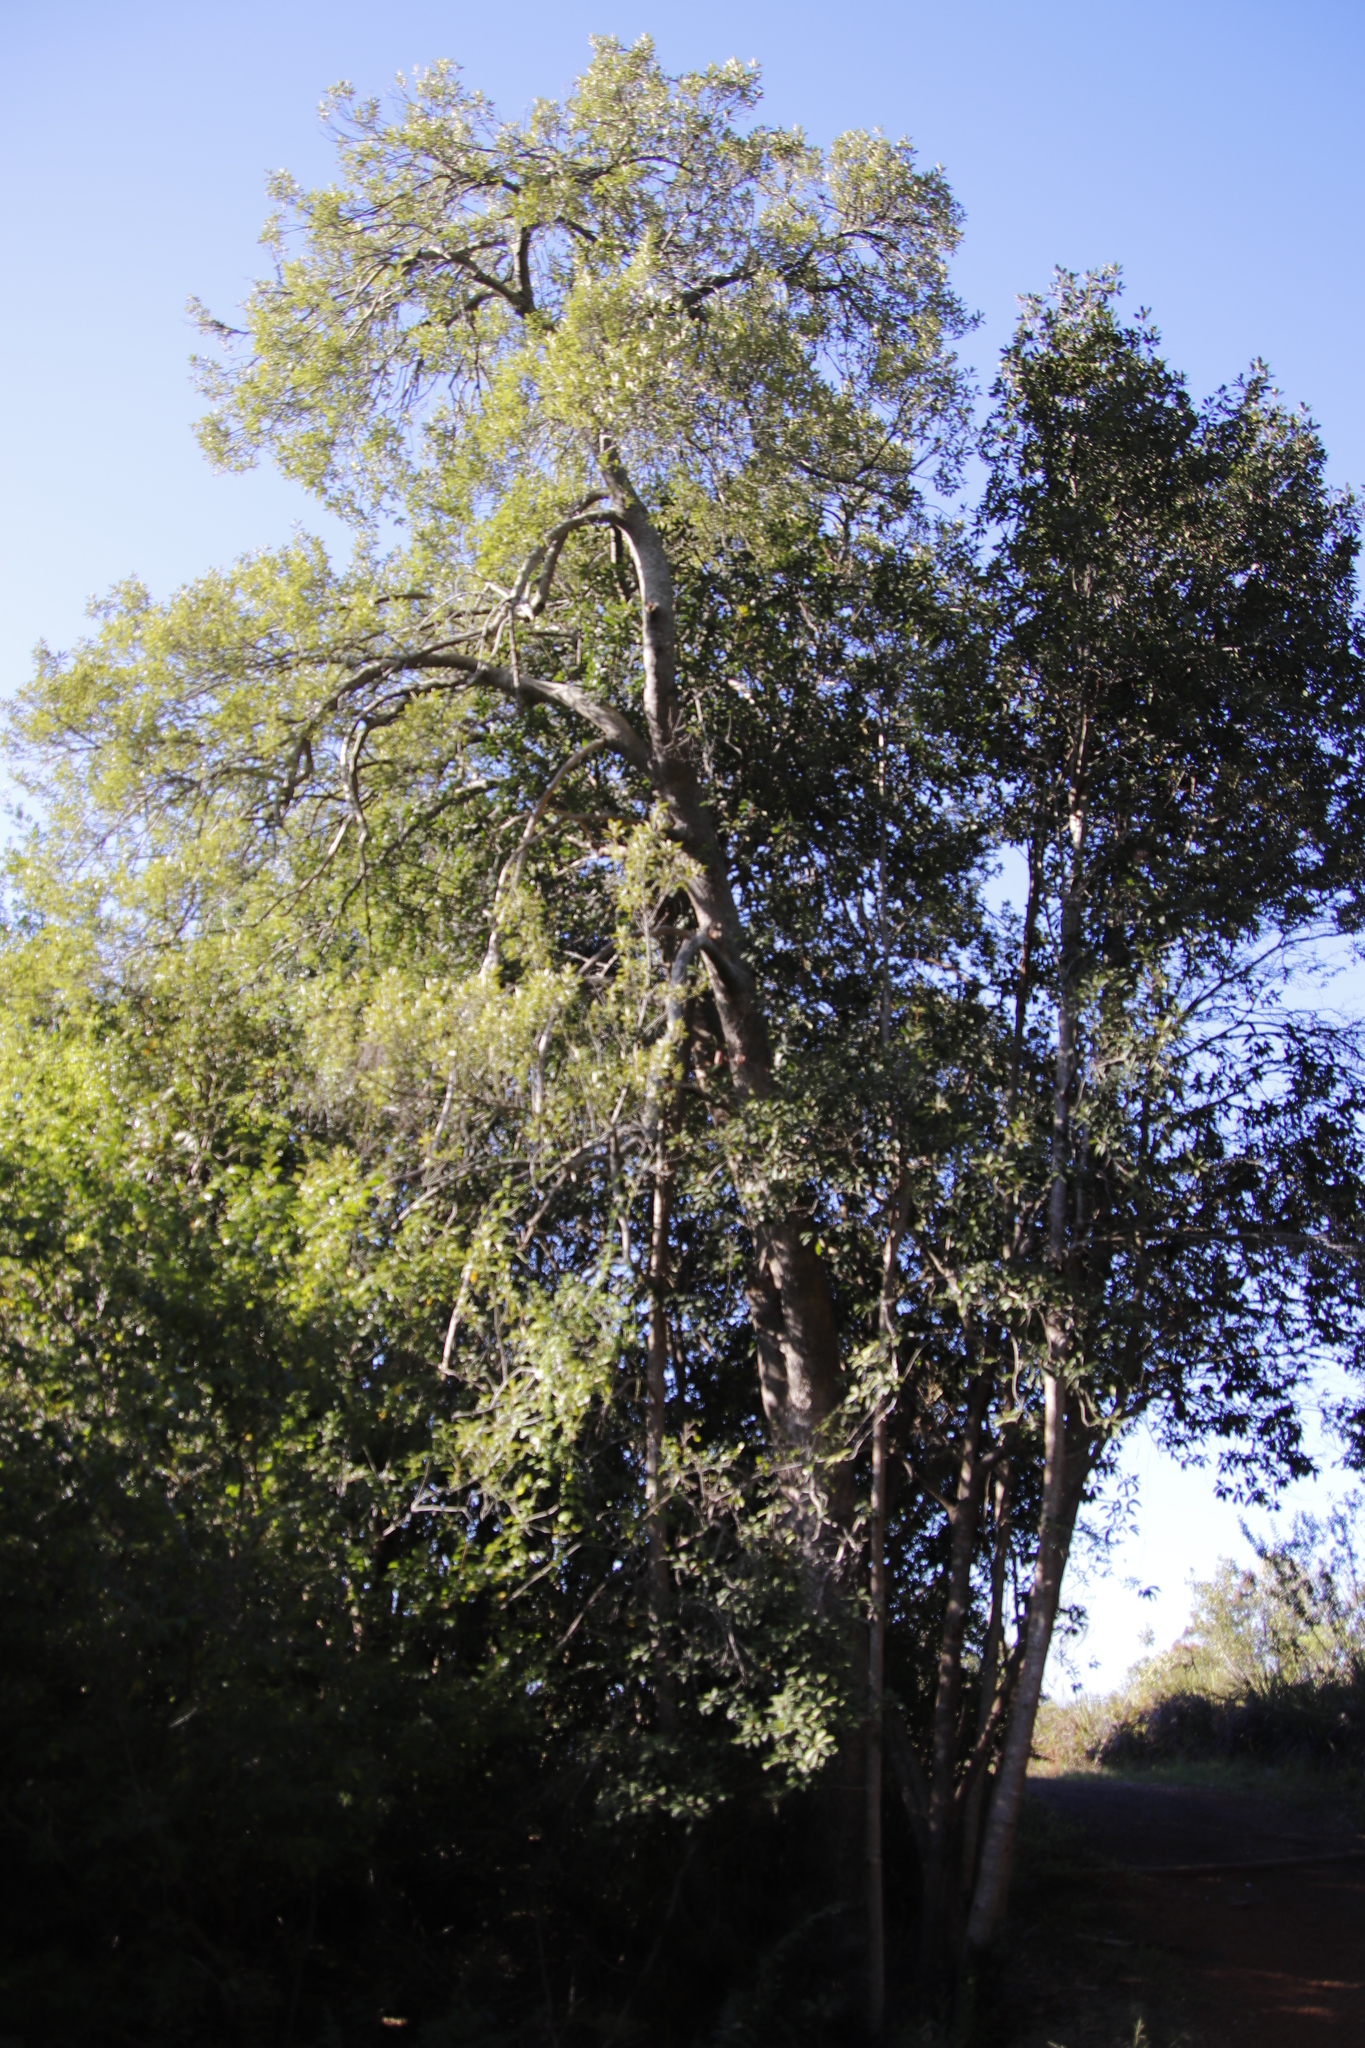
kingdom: Plantae
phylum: Tracheophyta
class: Magnoliopsida
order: Malpighiales
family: Achariaceae
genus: Kiggelaria
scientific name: Kiggelaria africana
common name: Wild peach
